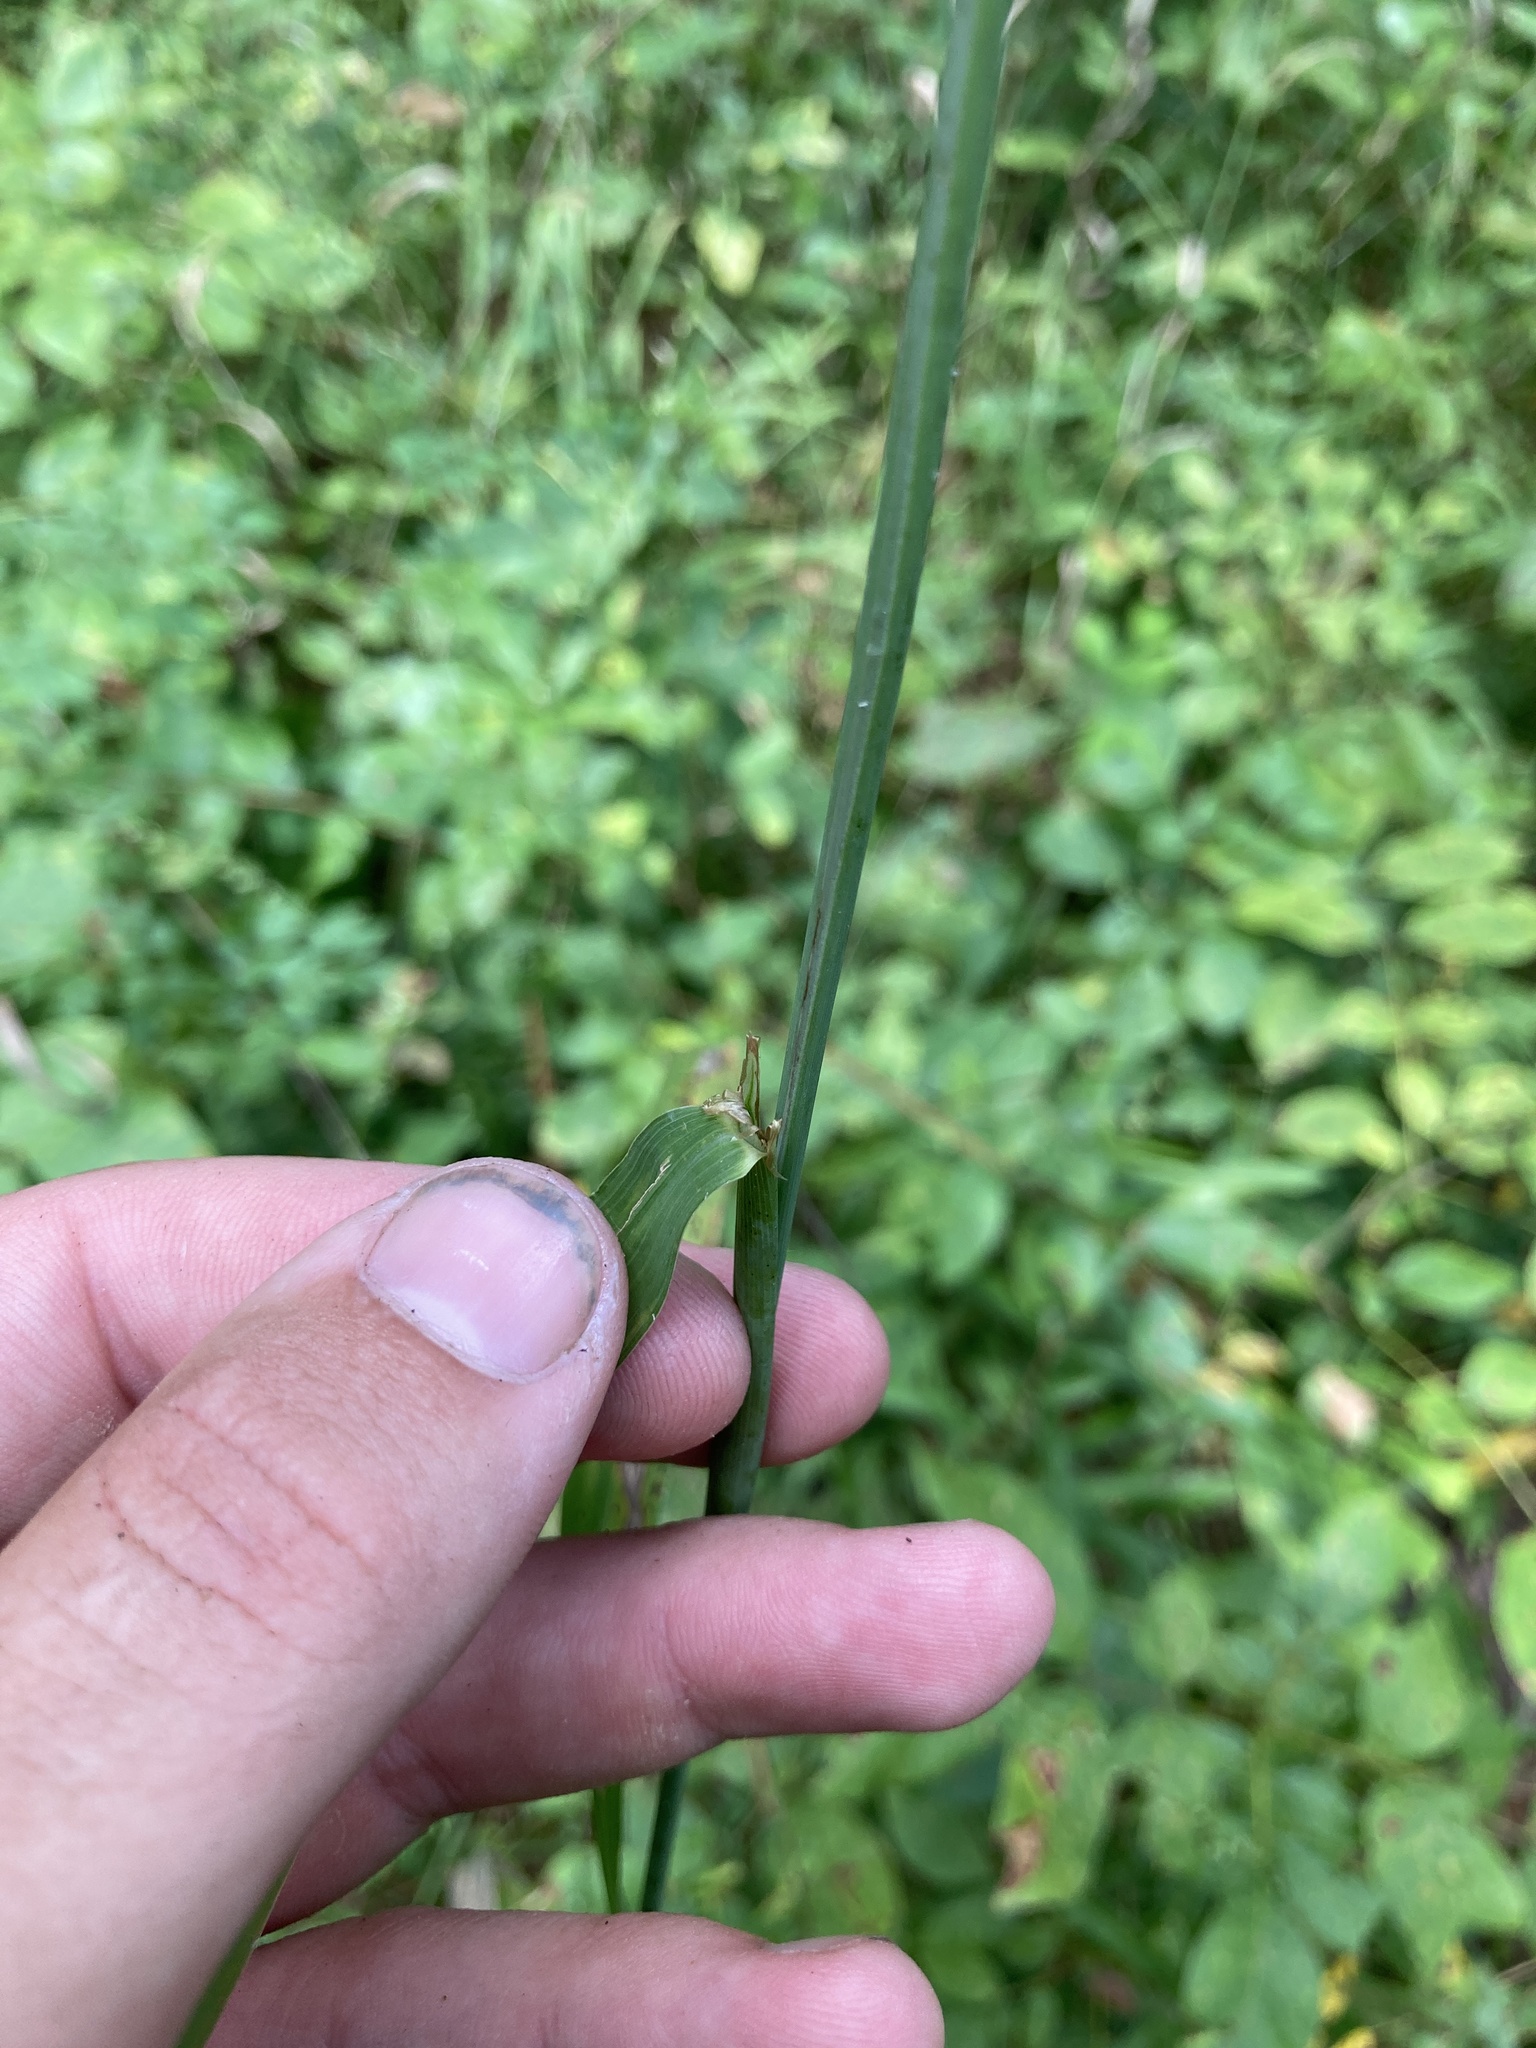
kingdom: Plantae
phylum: Tracheophyta
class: Liliopsida
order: Poales
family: Poaceae
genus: Cinna
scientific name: Cinna arundinacea
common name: Stout woodreed
